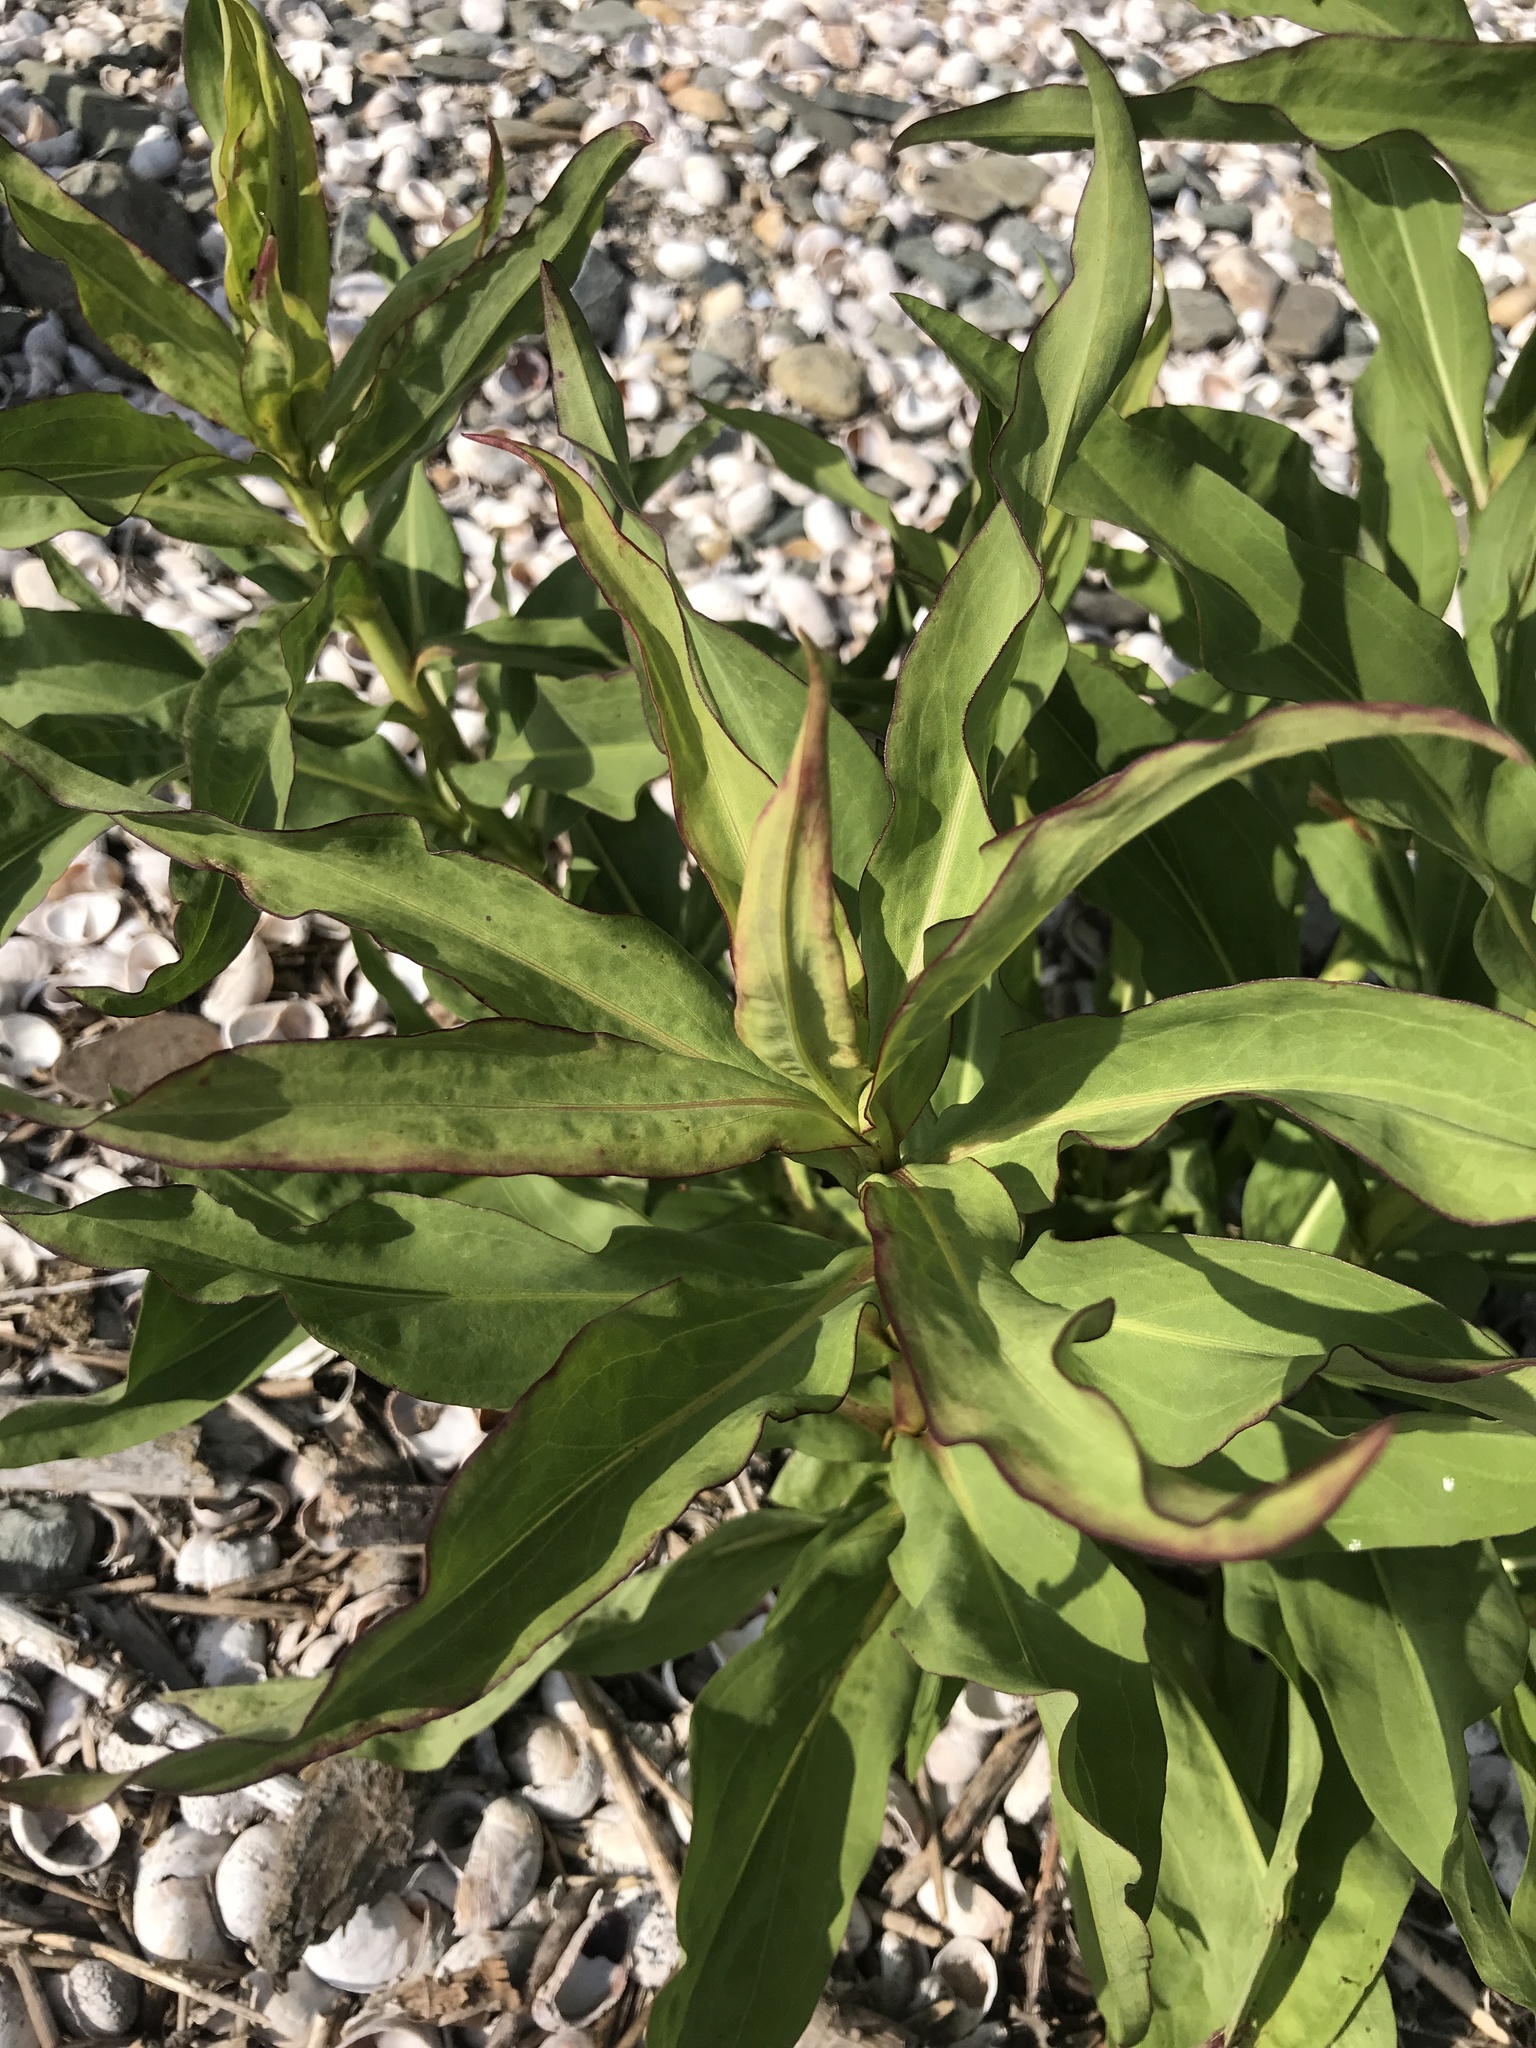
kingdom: Plantae
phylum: Tracheophyta
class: Magnoliopsida
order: Asterales
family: Asteraceae
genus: Solidago
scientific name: Solidago sempervirens
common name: Salt-marsh goldenrod
